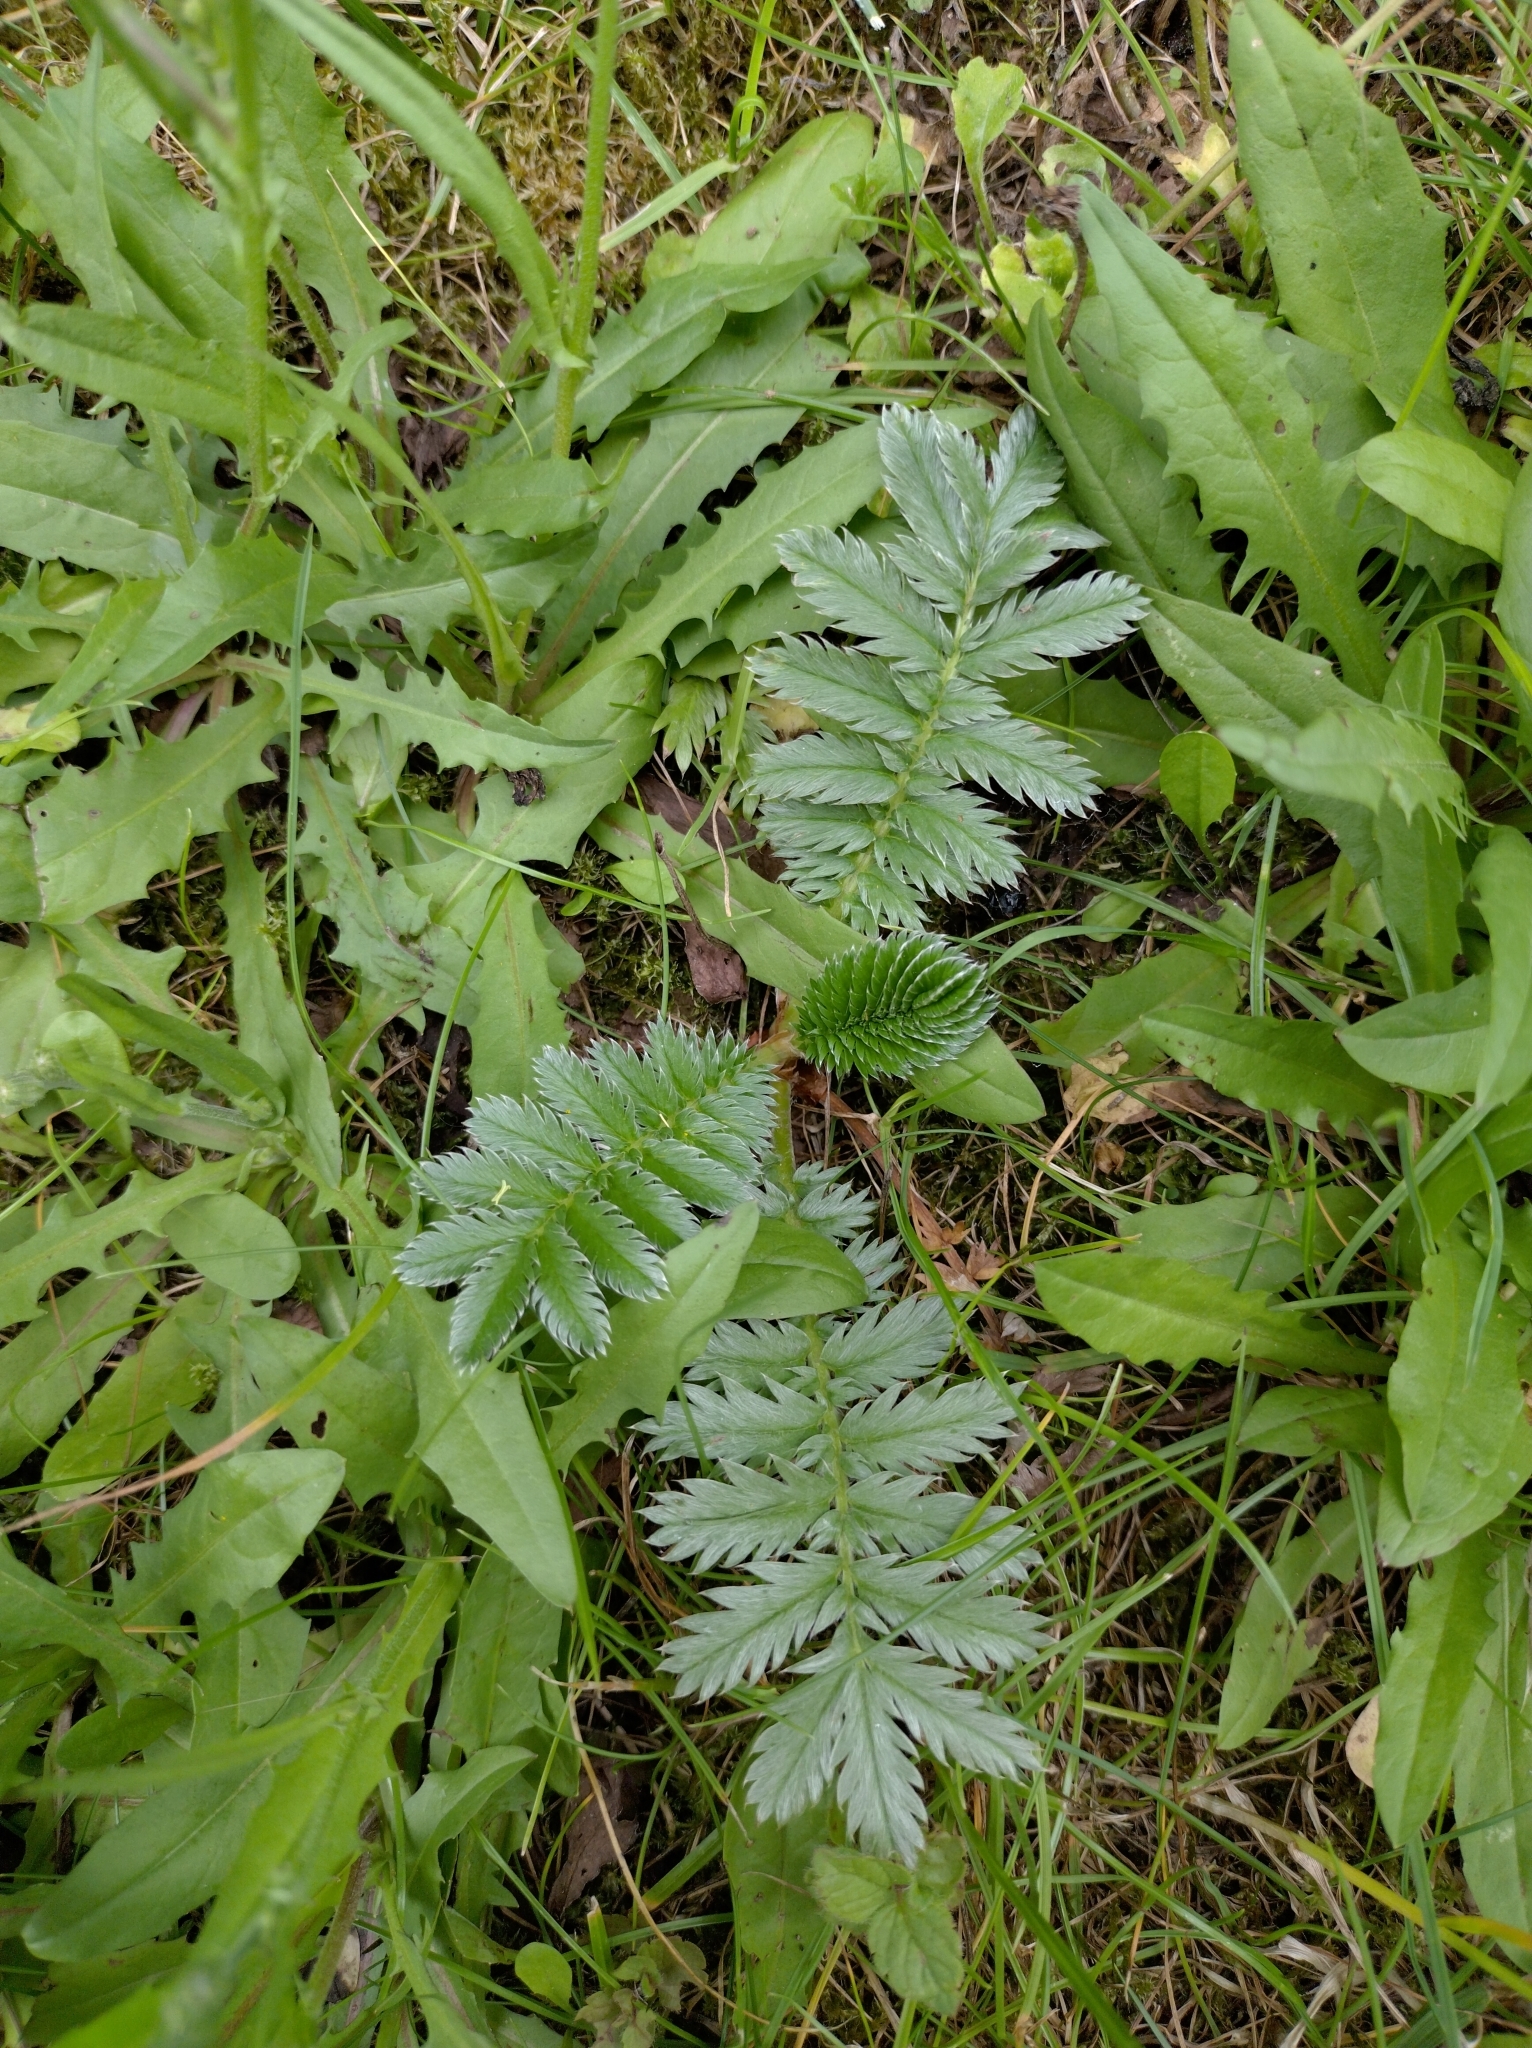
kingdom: Plantae
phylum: Tracheophyta
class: Magnoliopsida
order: Rosales
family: Rosaceae
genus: Argentina
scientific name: Argentina anserina
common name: Common silverweed
